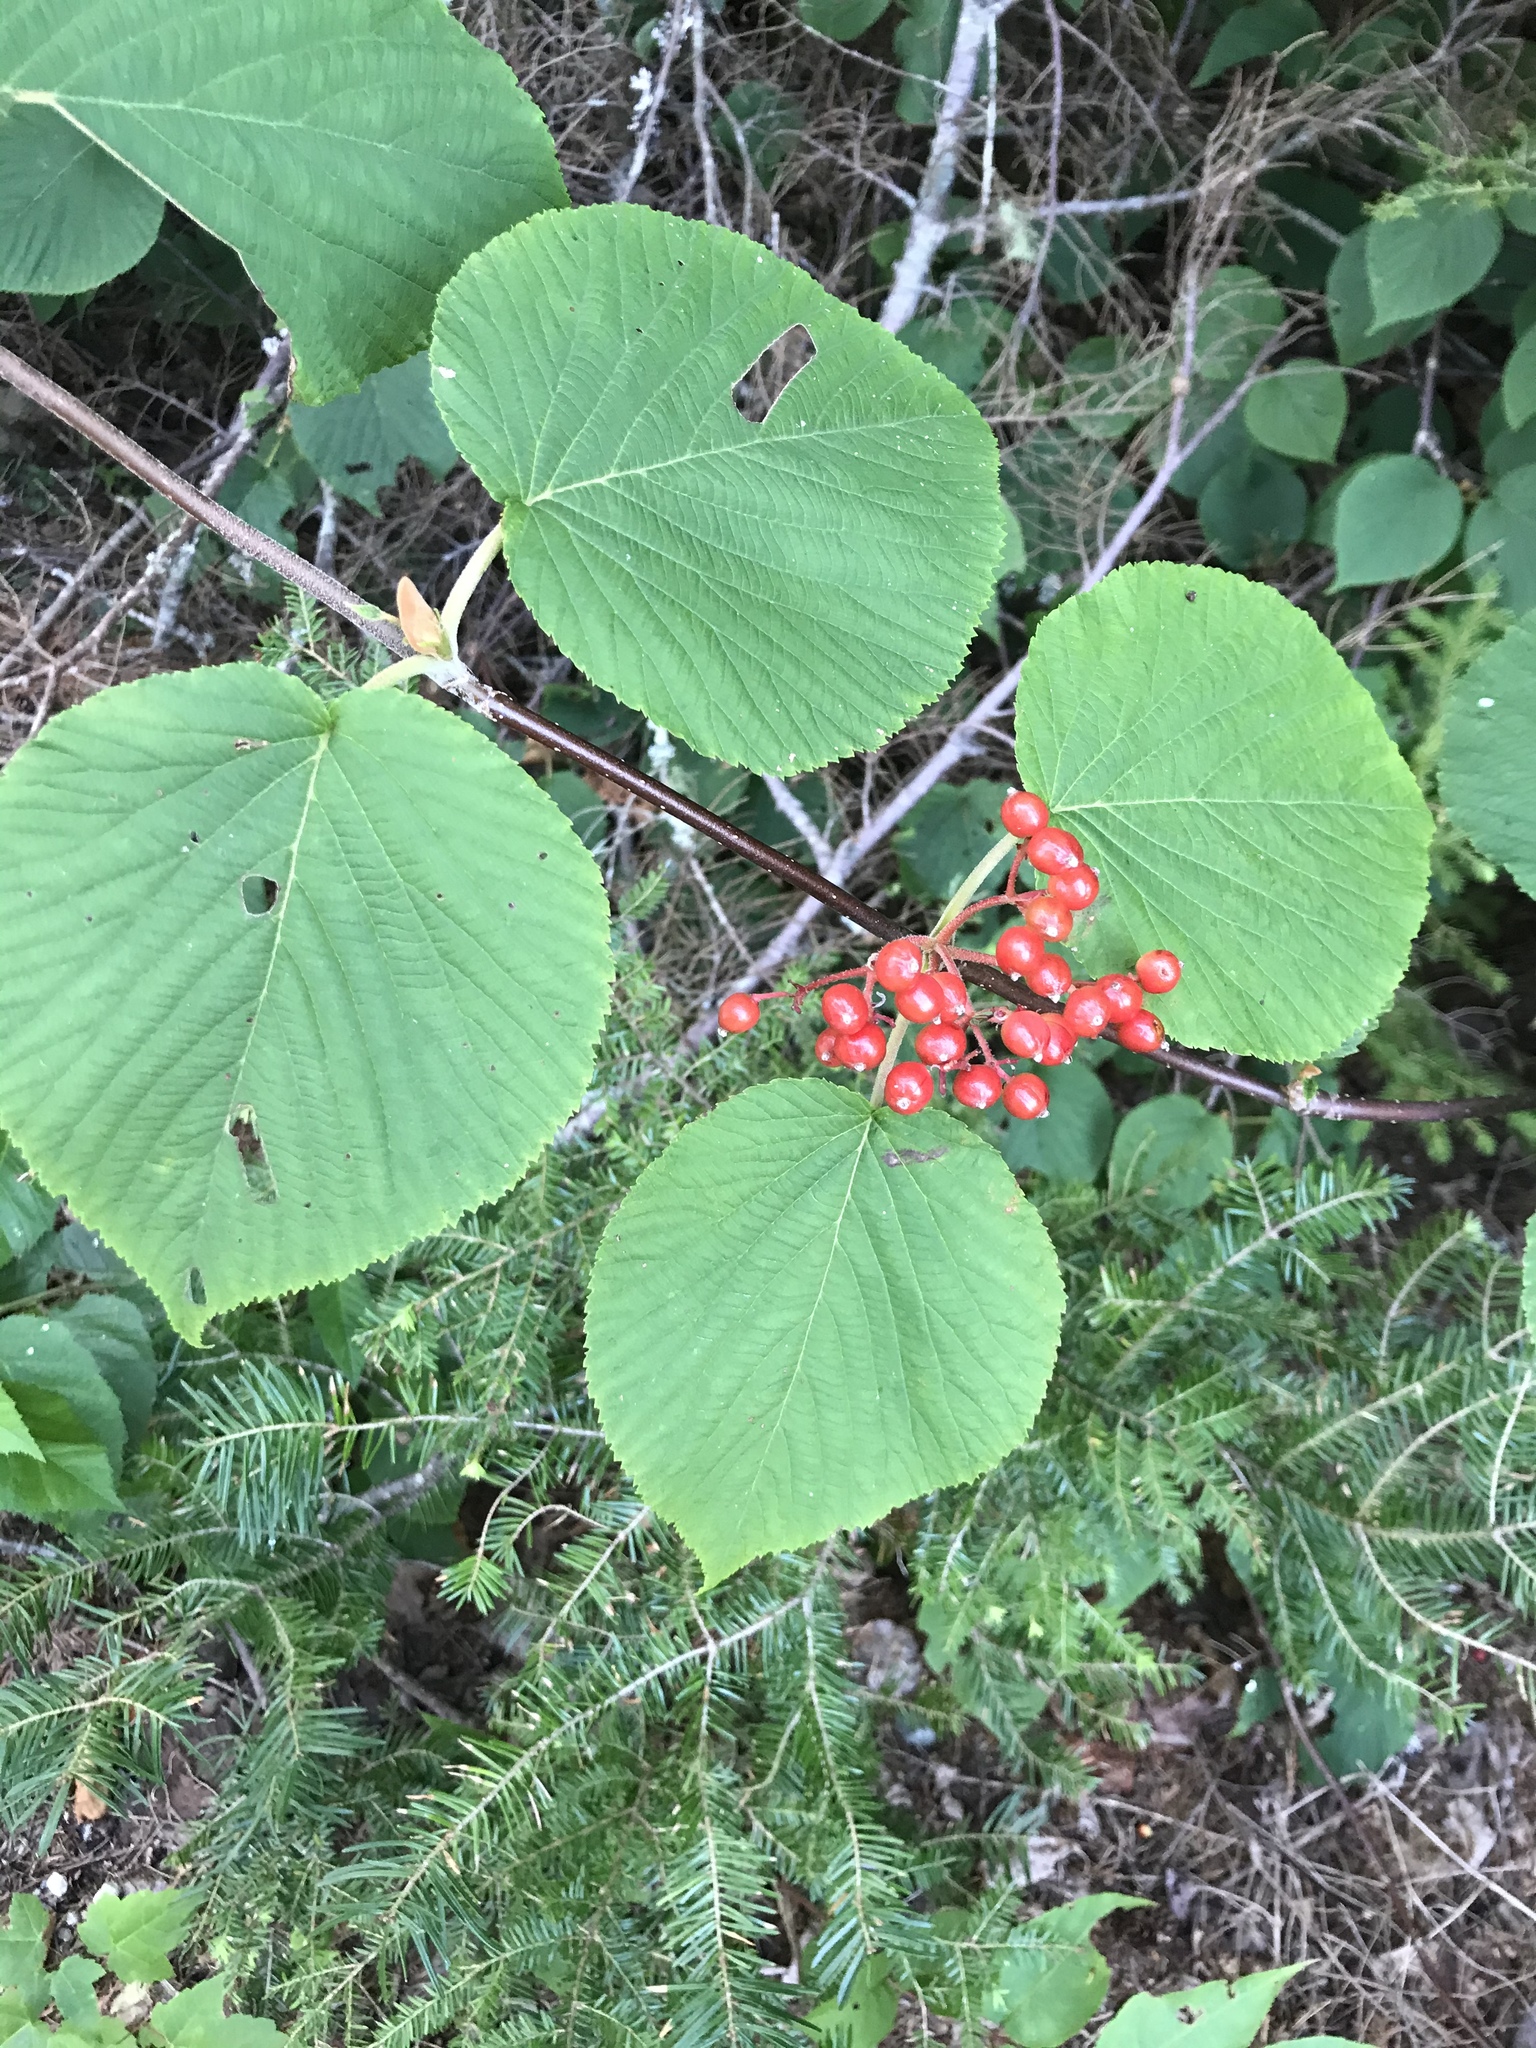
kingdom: Plantae
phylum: Tracheophyta
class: Magnoliopsida
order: Dipsacales
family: Viburnaceae
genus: Viburnum
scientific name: Viburnum lantanoides
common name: Hobblebush
